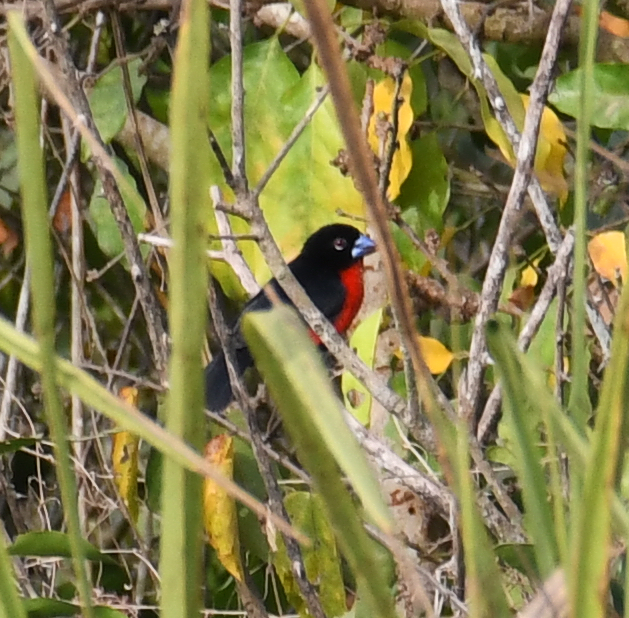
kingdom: Animalia
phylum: Chordata
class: Aves
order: Passeriformes
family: Estrildidae
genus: Spermophaga
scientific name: Spermophaga haematina
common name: Western bluebill
